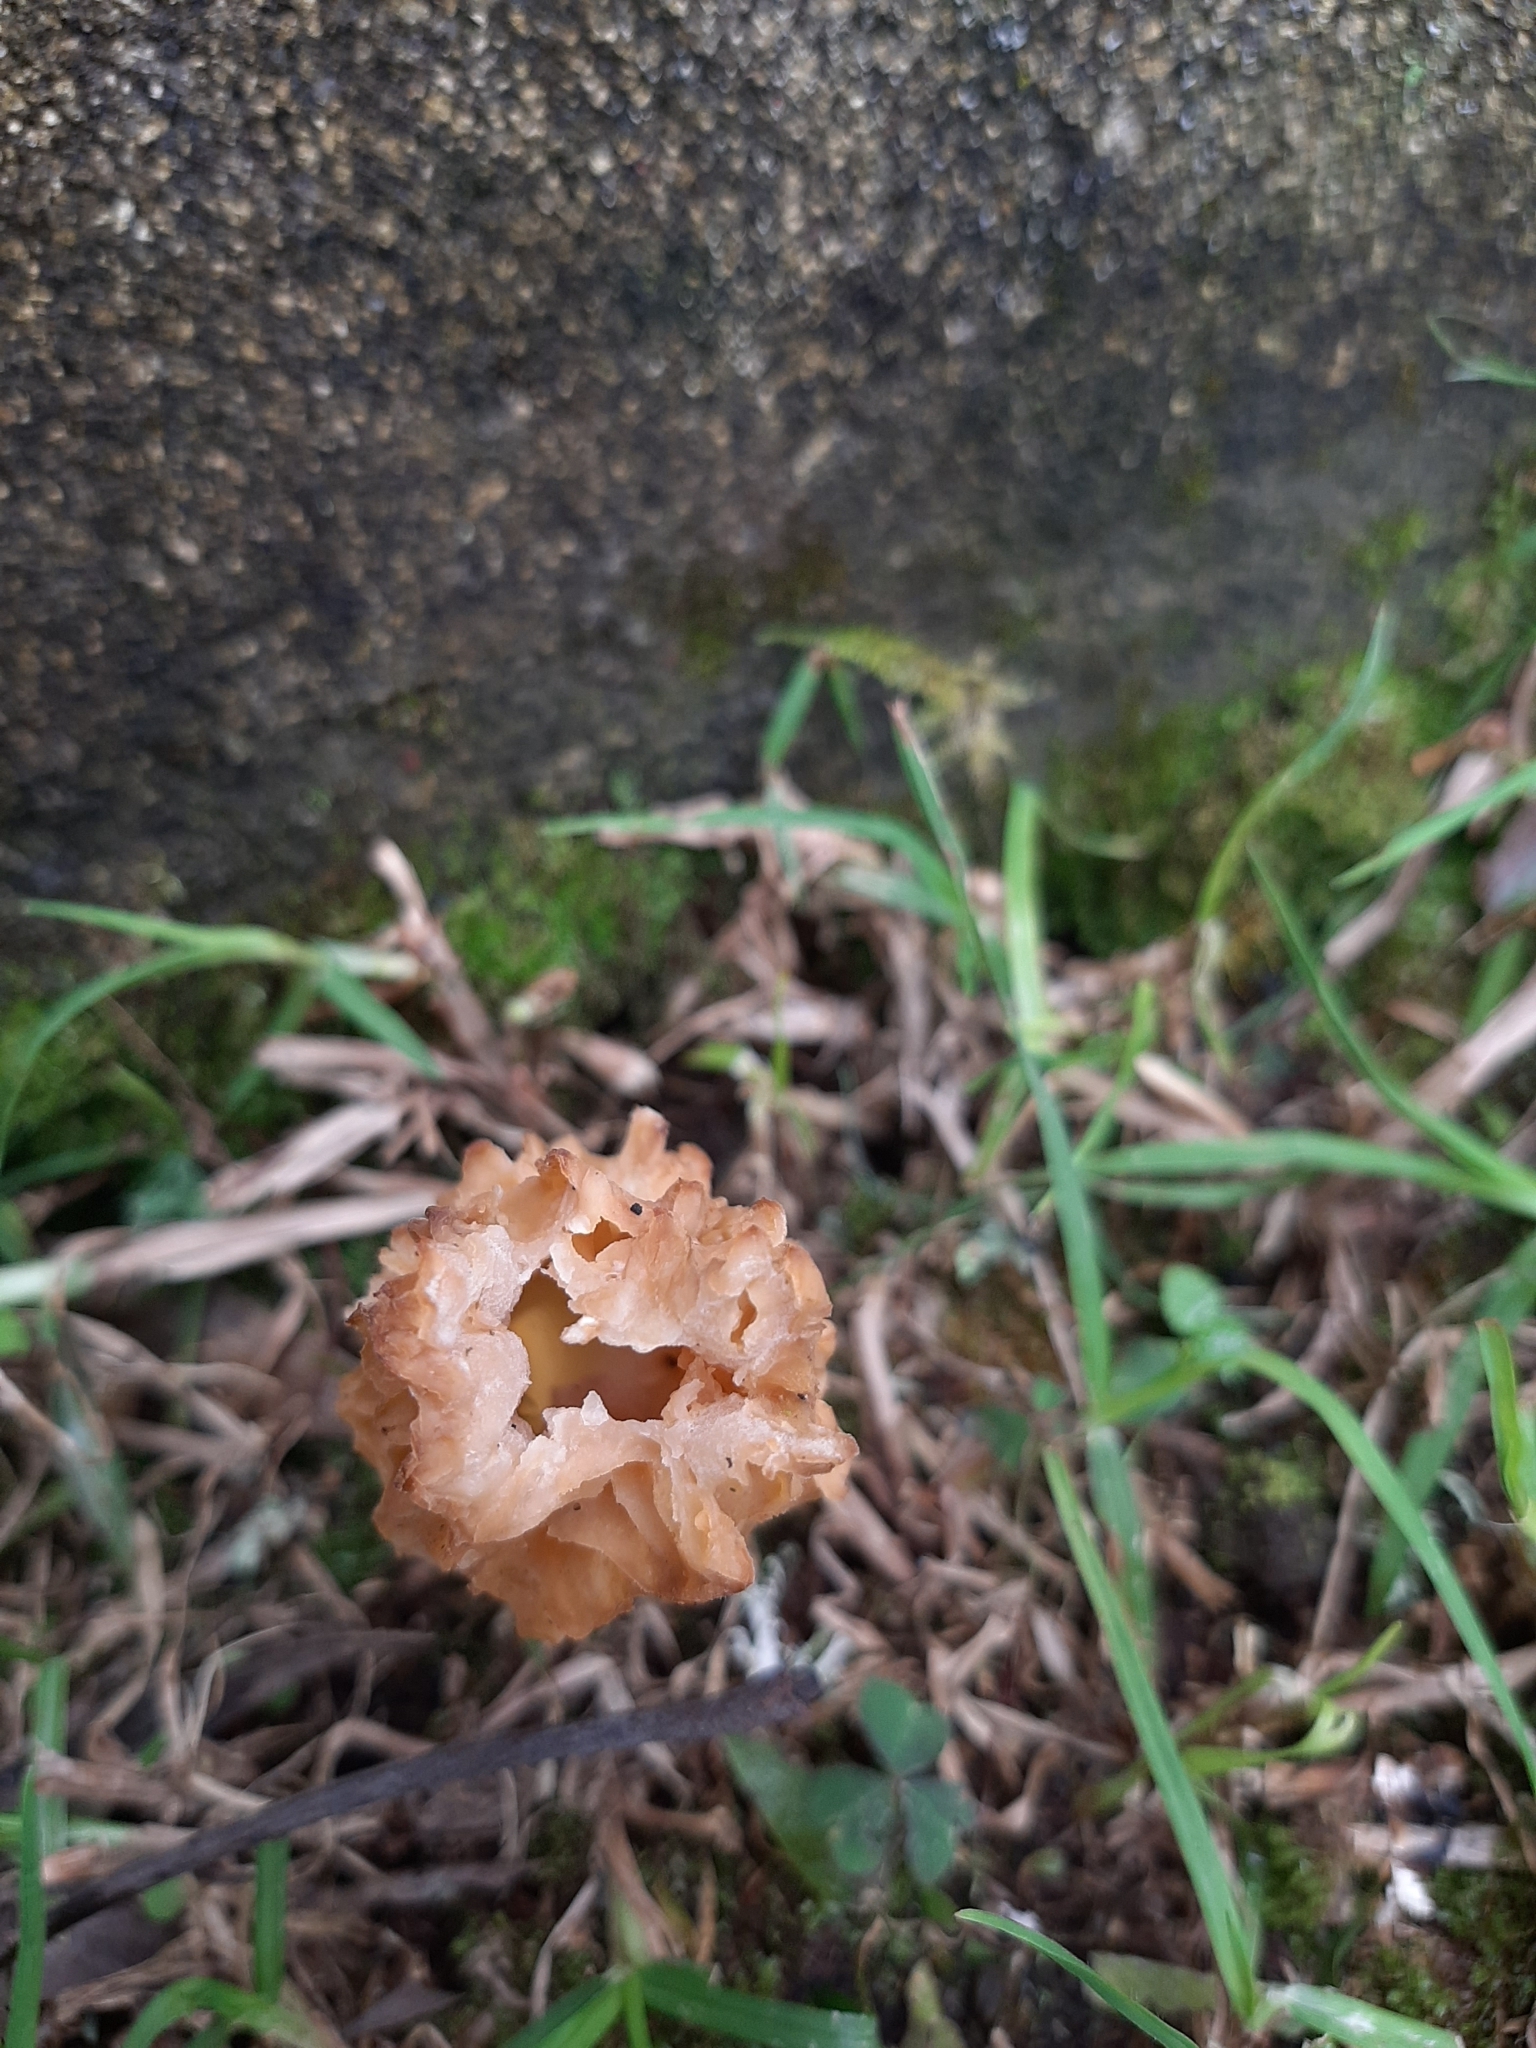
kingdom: Fungi
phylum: Ascomycota
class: Pezizomycetes
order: Pezizales
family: Morchellaceae
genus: Morchella
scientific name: Morchella guatemalensis
